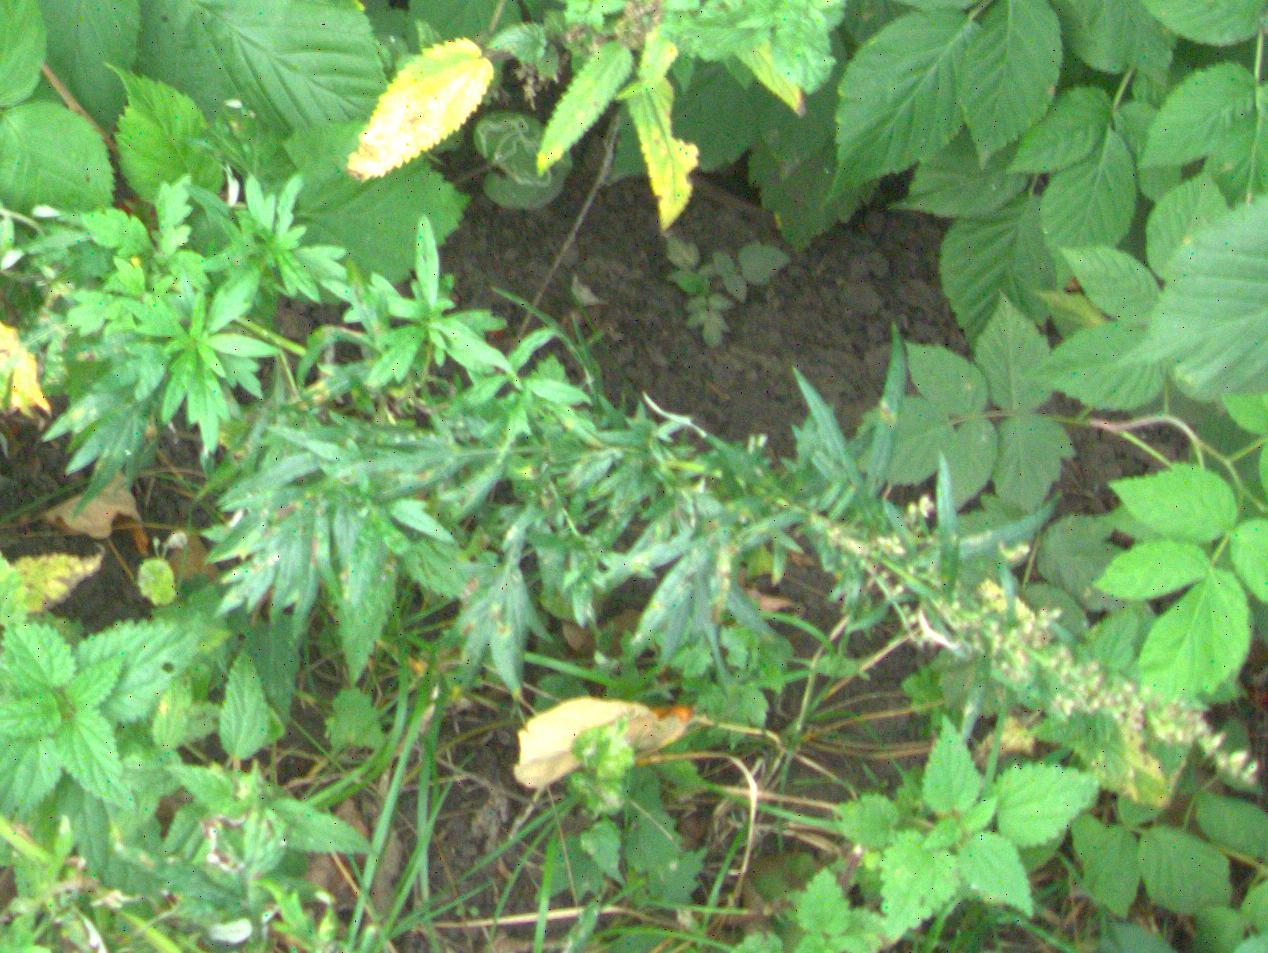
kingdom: Plantae
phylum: Tracheophyta
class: Magnoliopsida
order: Asterales
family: Asteraceae
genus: Artemisia
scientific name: Artemisia vulgaris
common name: Mugwort
